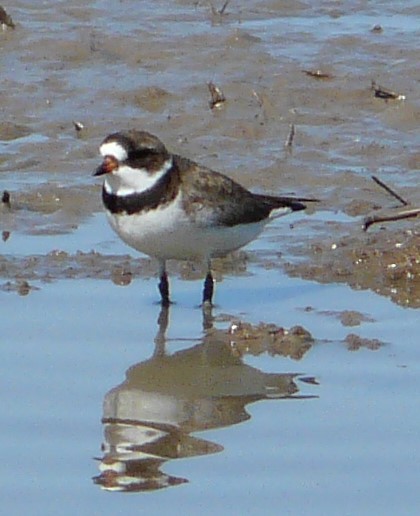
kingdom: Animalia
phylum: Chordata
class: Aves
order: Charadriiformes
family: Charadriidae
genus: Charadrius
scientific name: Charadrius semipalmatus
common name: Semipalmated plover
